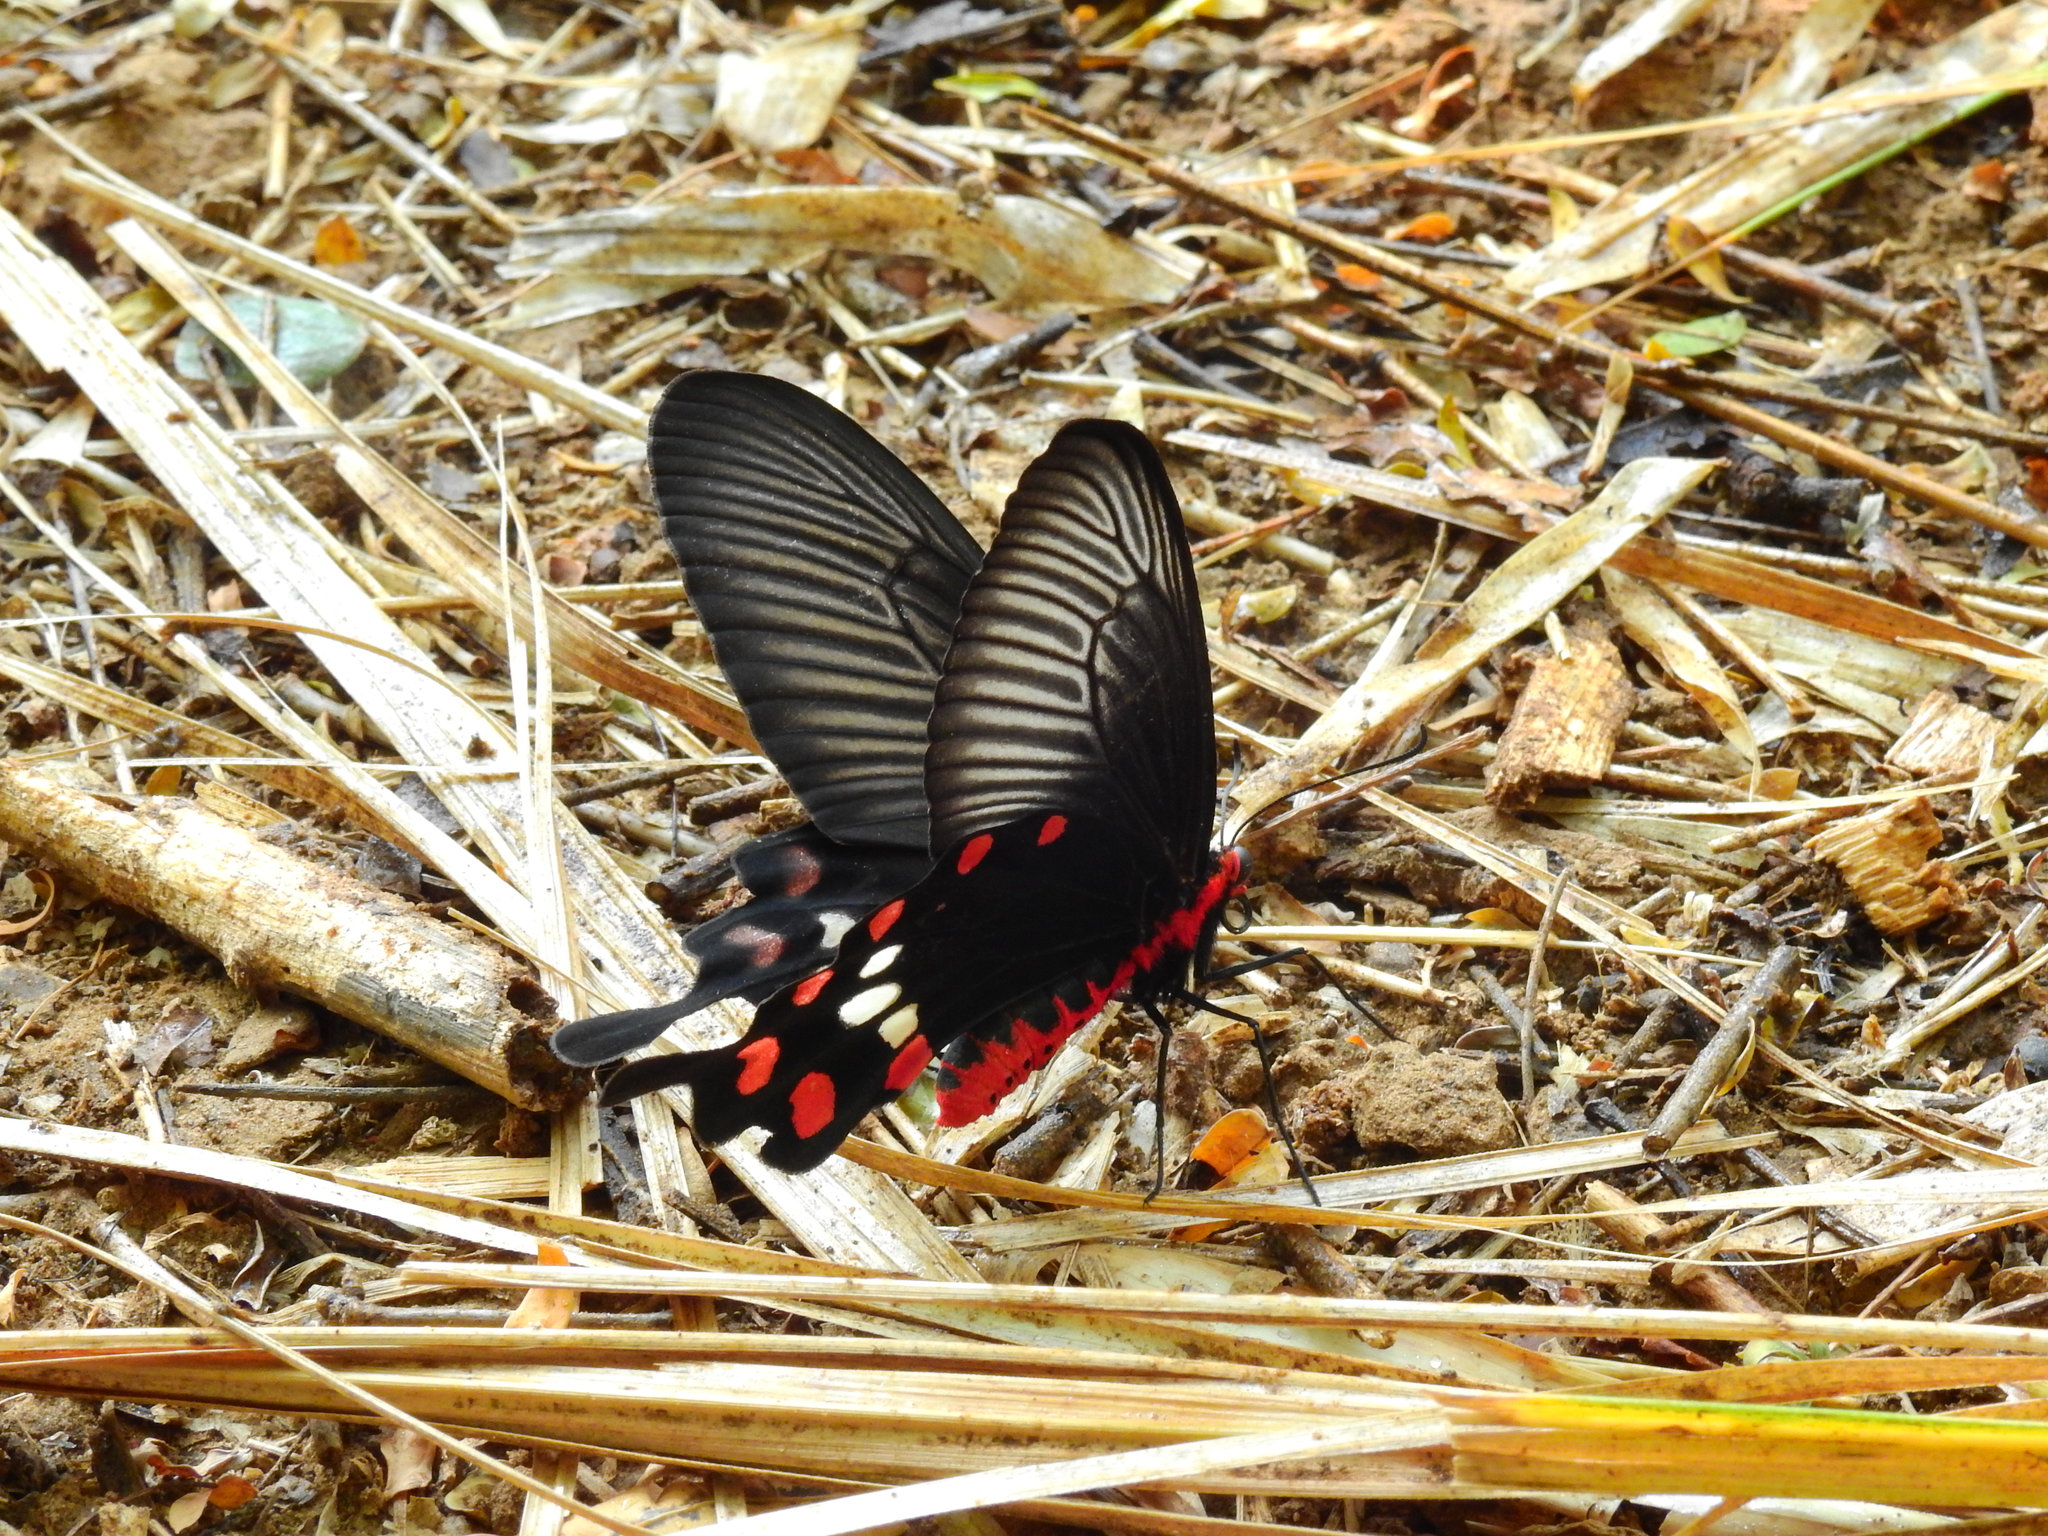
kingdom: Animalia
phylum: Arthropoda
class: Insecta
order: Lepidoptera
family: Papilionidae
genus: Pachliopta
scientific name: Pachliopta aristolochiae
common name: Common rose
